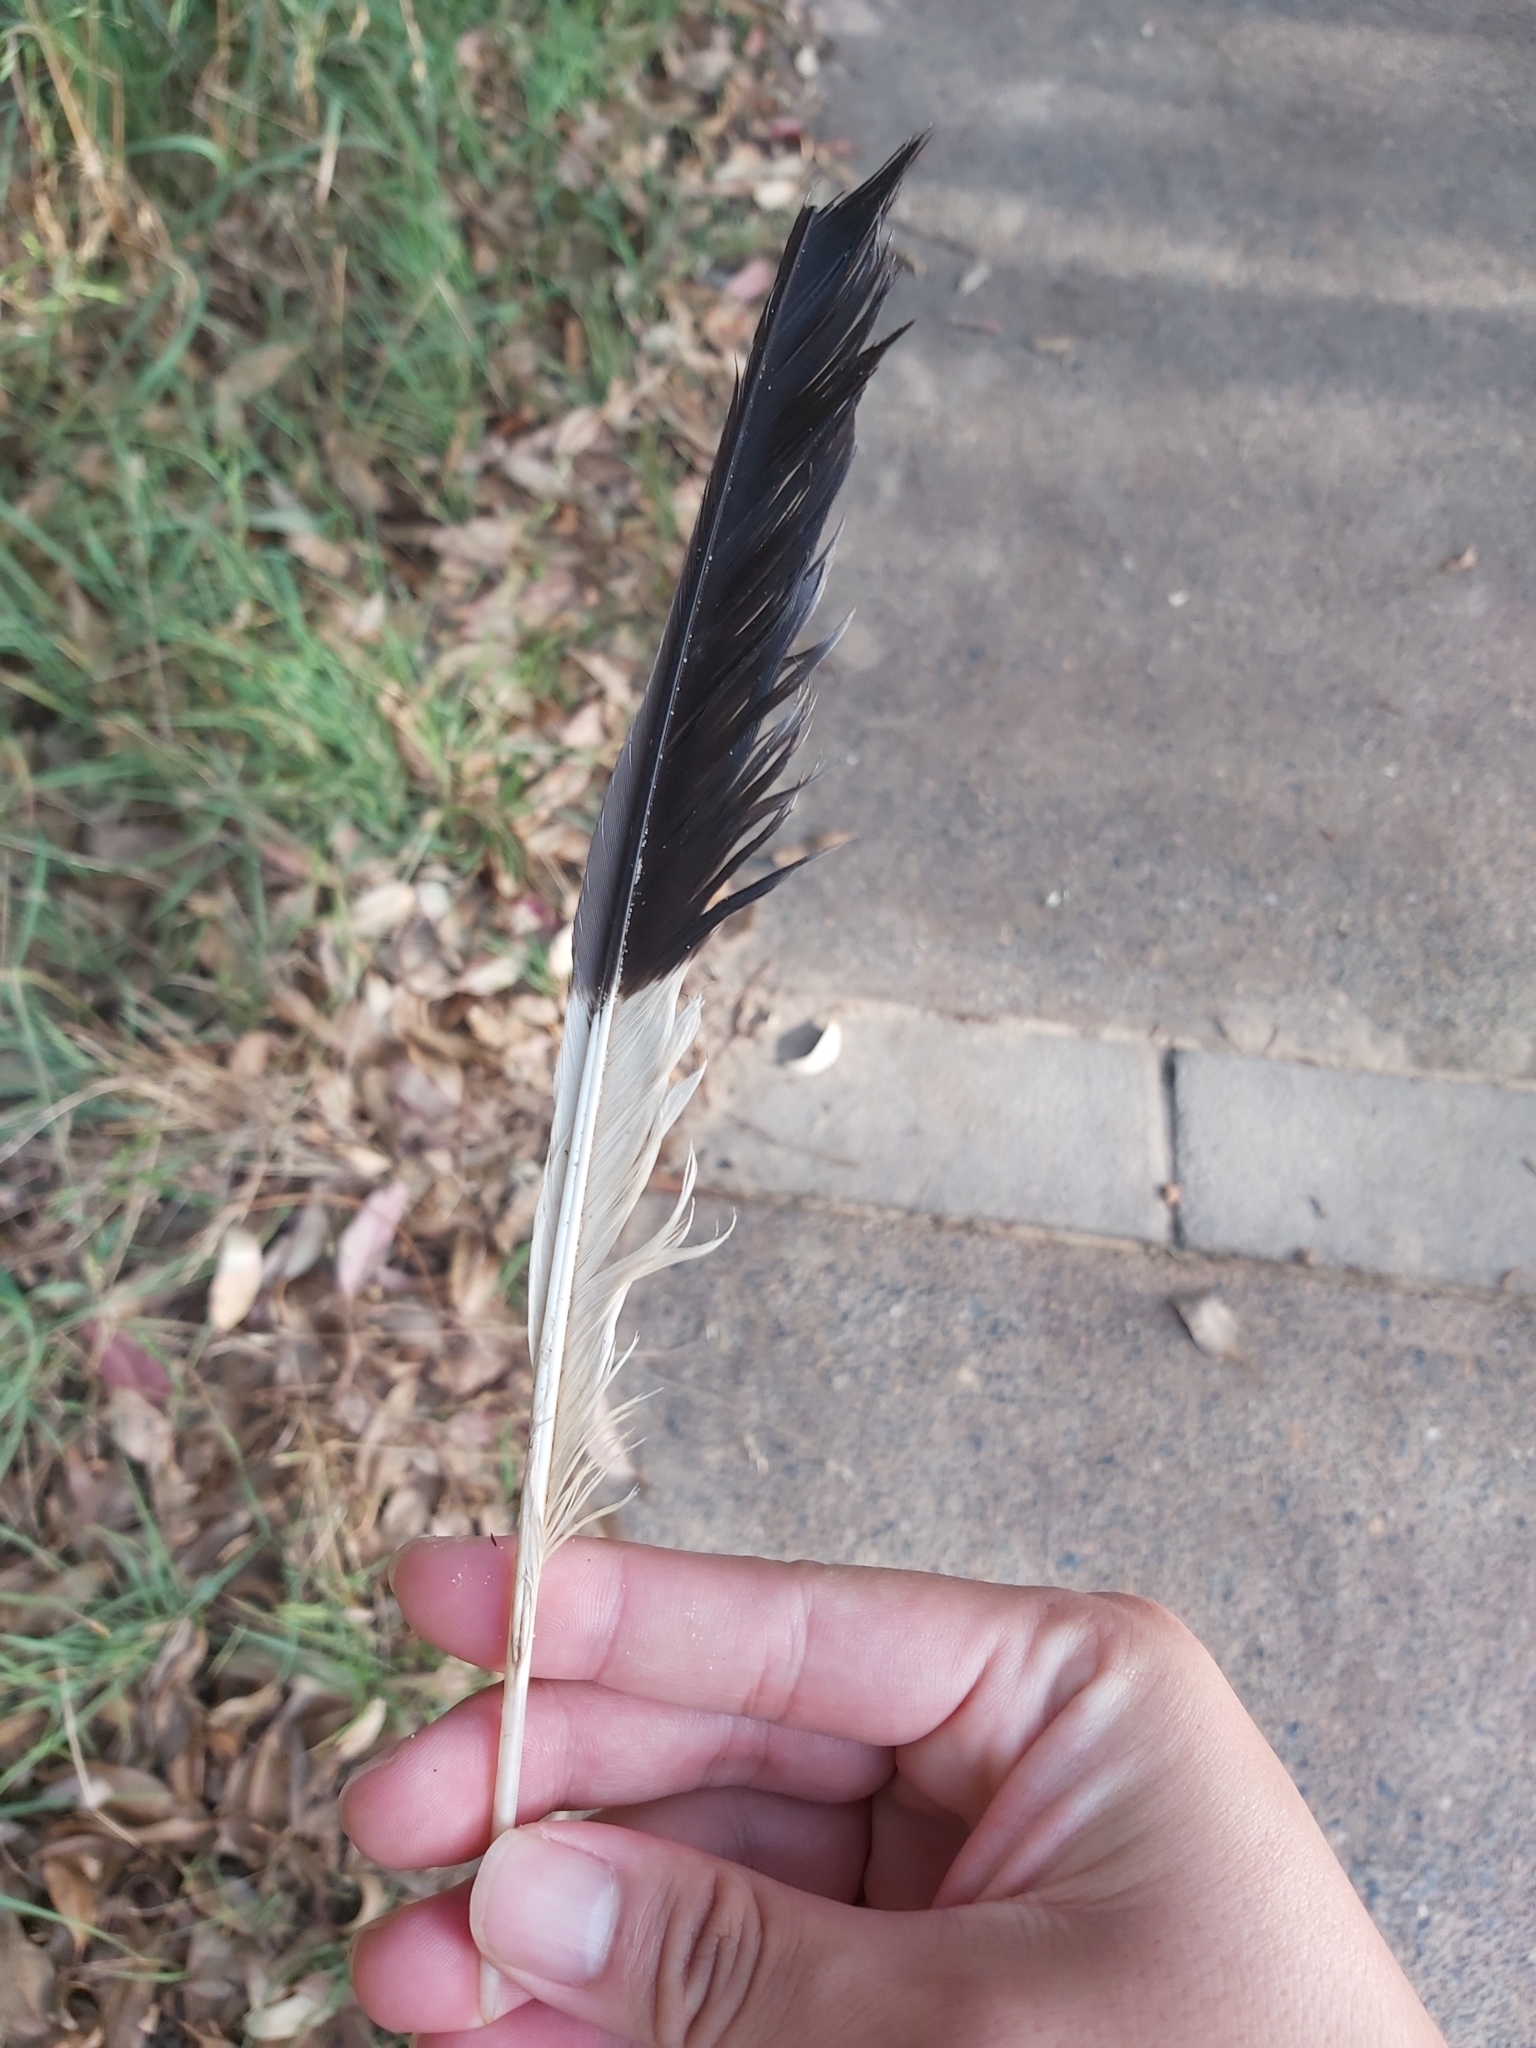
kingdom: Animalia
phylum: Chordata
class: Aves
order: Passeriformes
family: Cracticidae
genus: Strepera
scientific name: Strepera graculina
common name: Pied currawong
